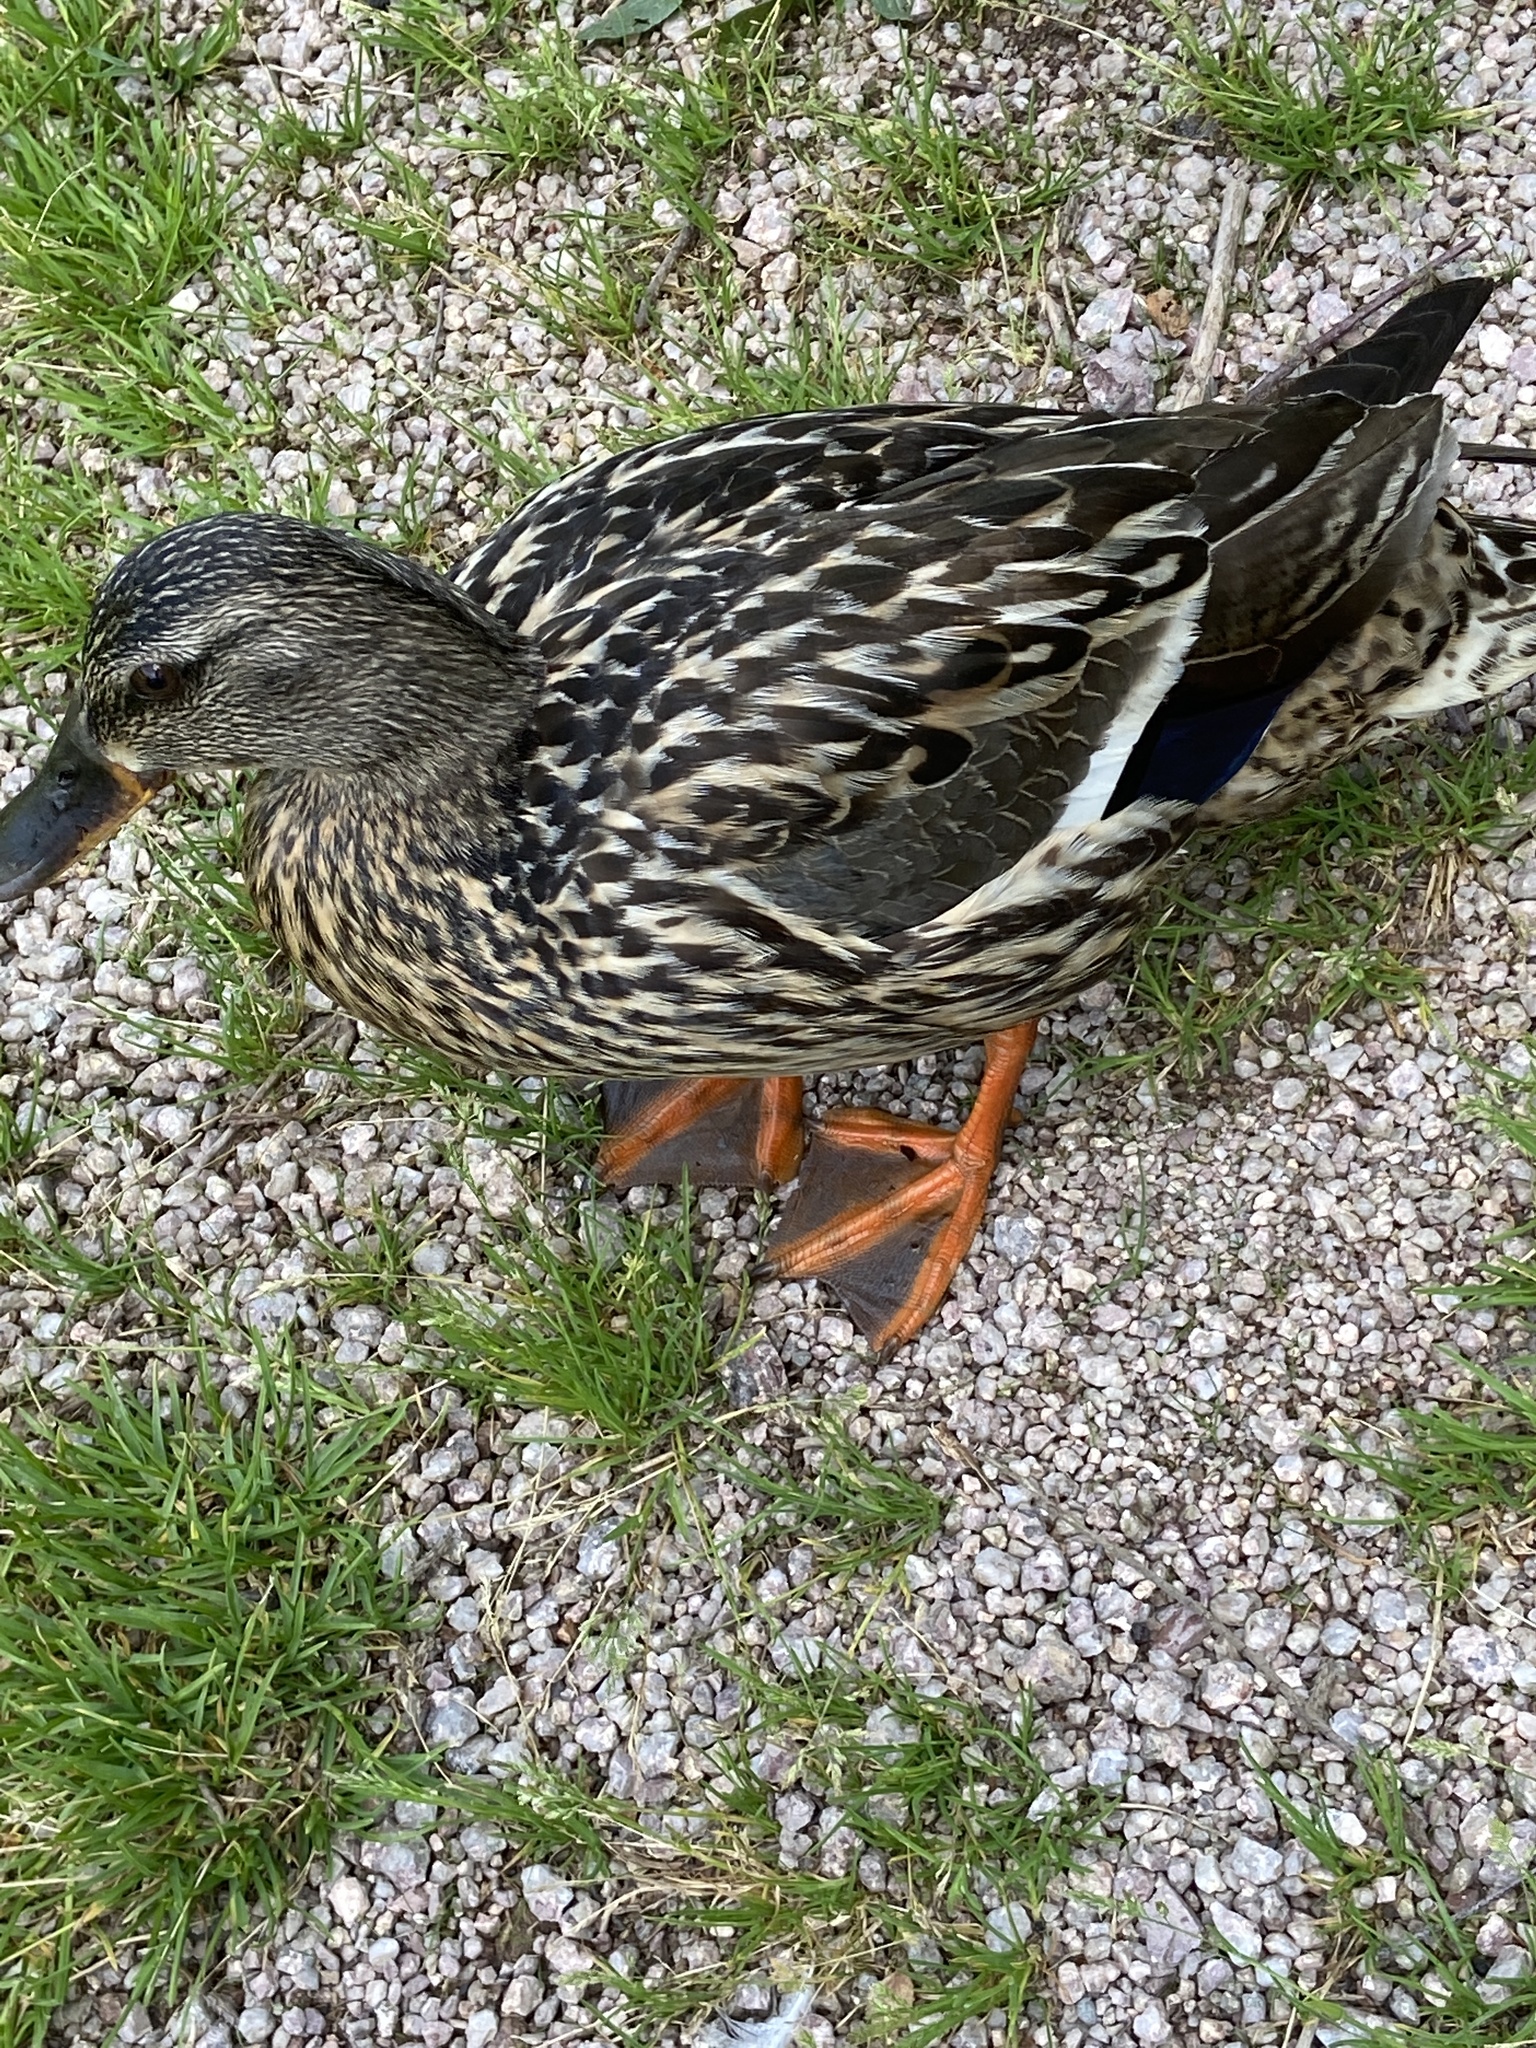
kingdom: Animalia
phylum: Chordata
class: Aves
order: Anseriformes
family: Anatidae
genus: Anas
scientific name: Anas platyrhynchos
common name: Mallard
